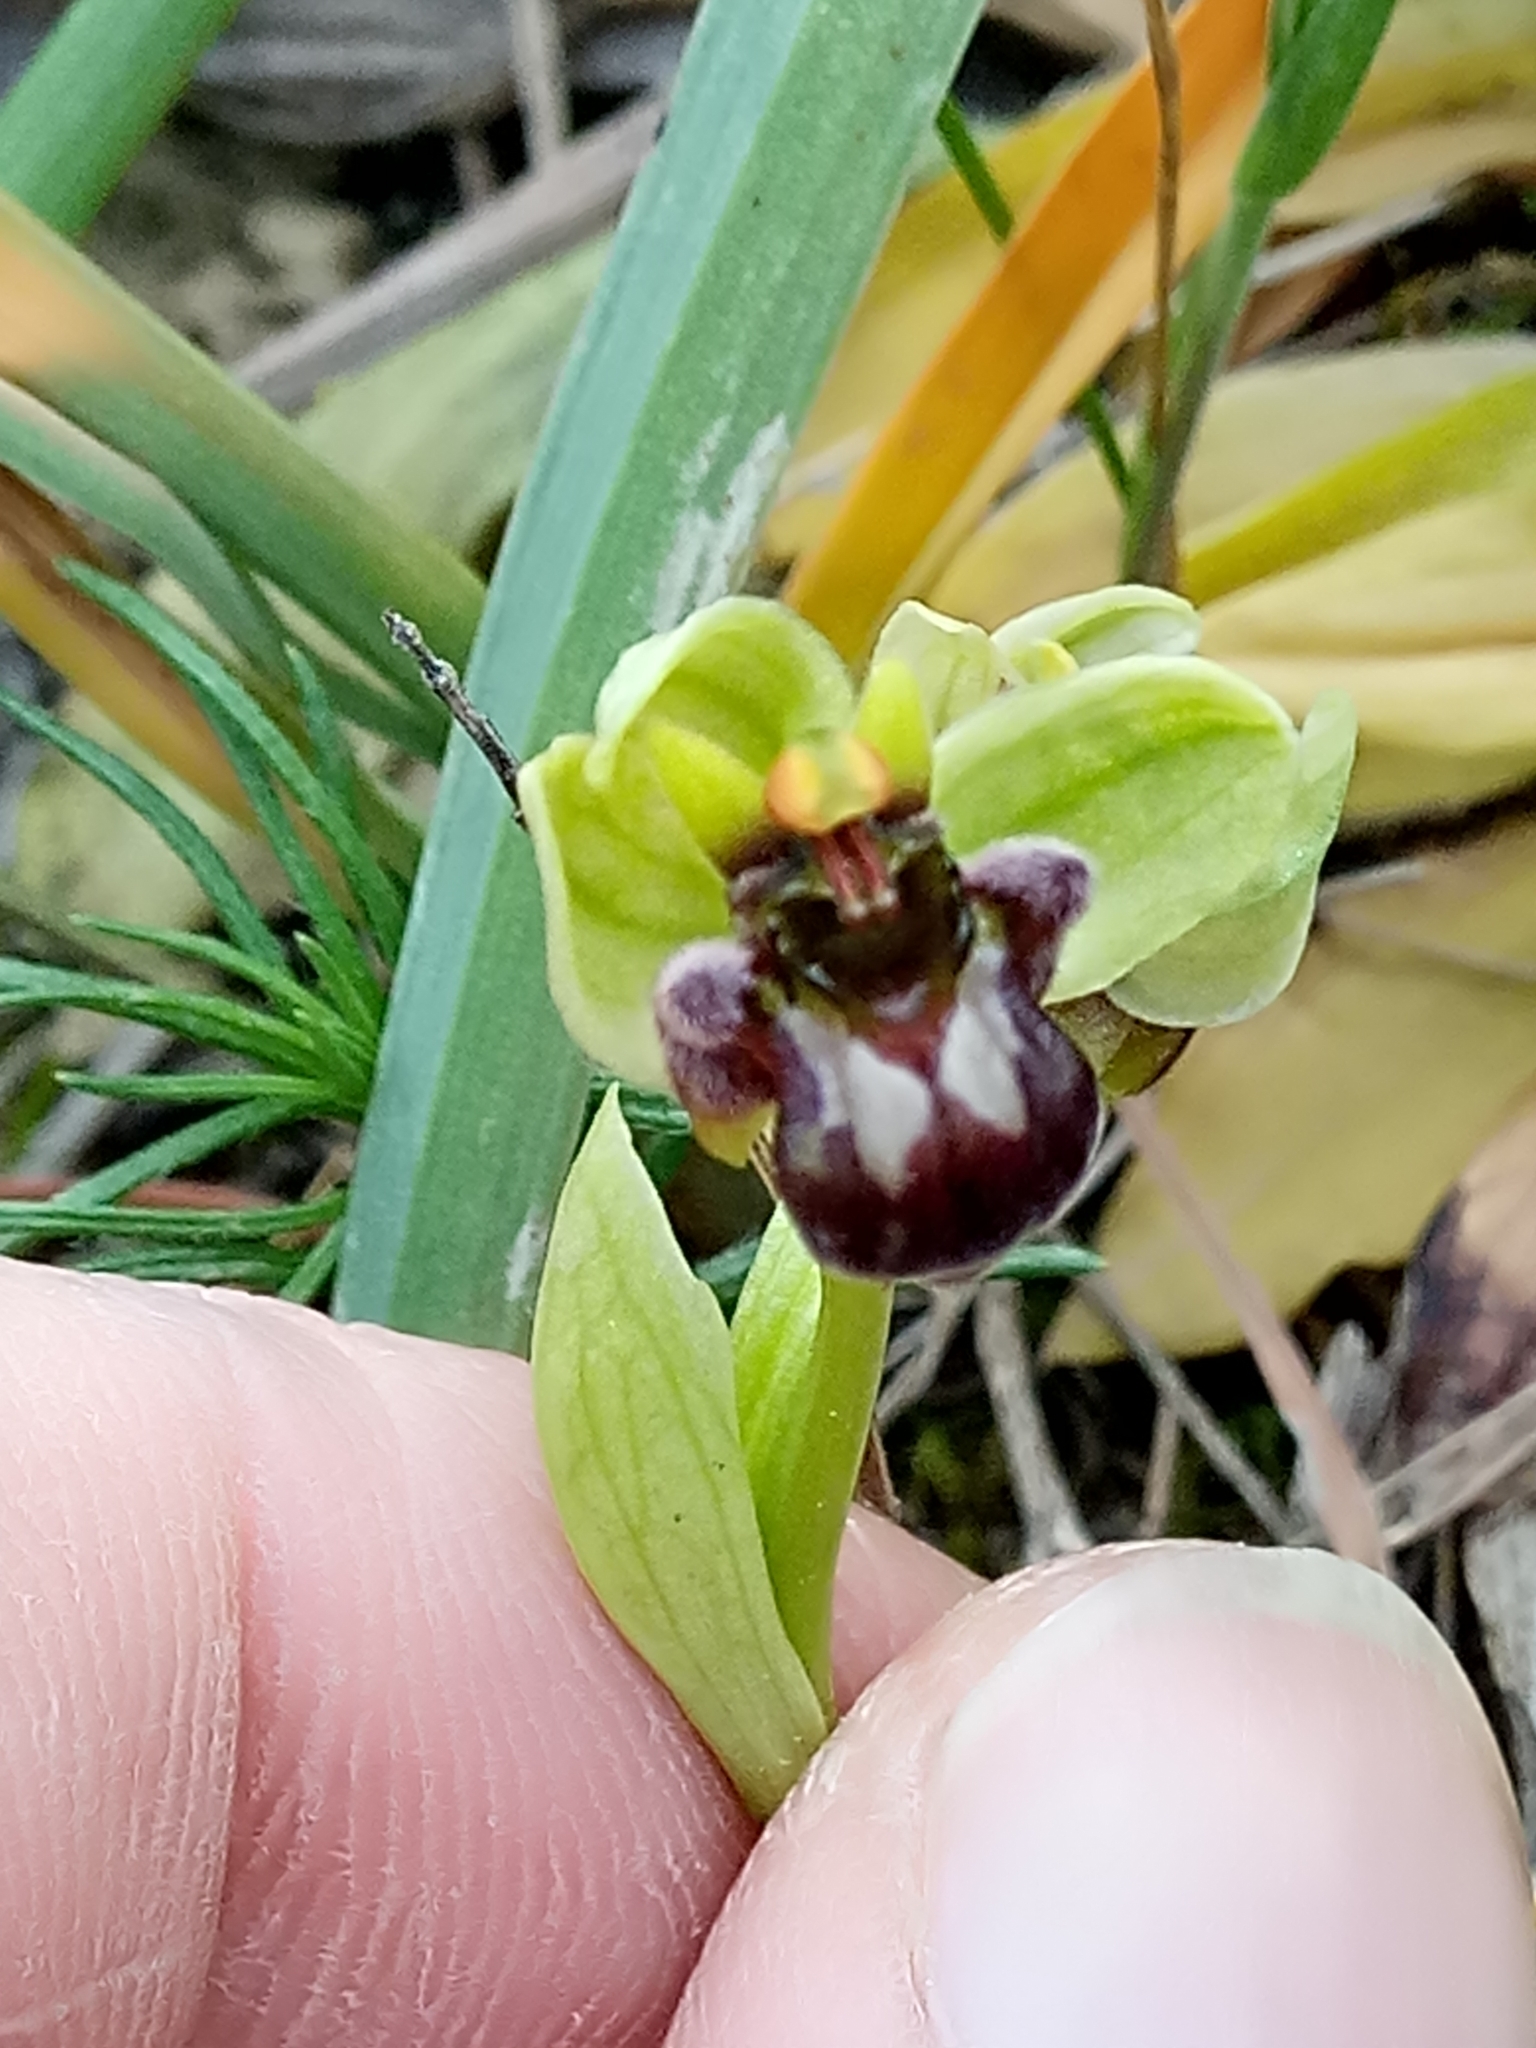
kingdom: Plantae
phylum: Tracheophyta
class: Liliopsida
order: Asparagales
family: Orchidaceae
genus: Ophrys
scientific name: Ophrys bombyliflora
